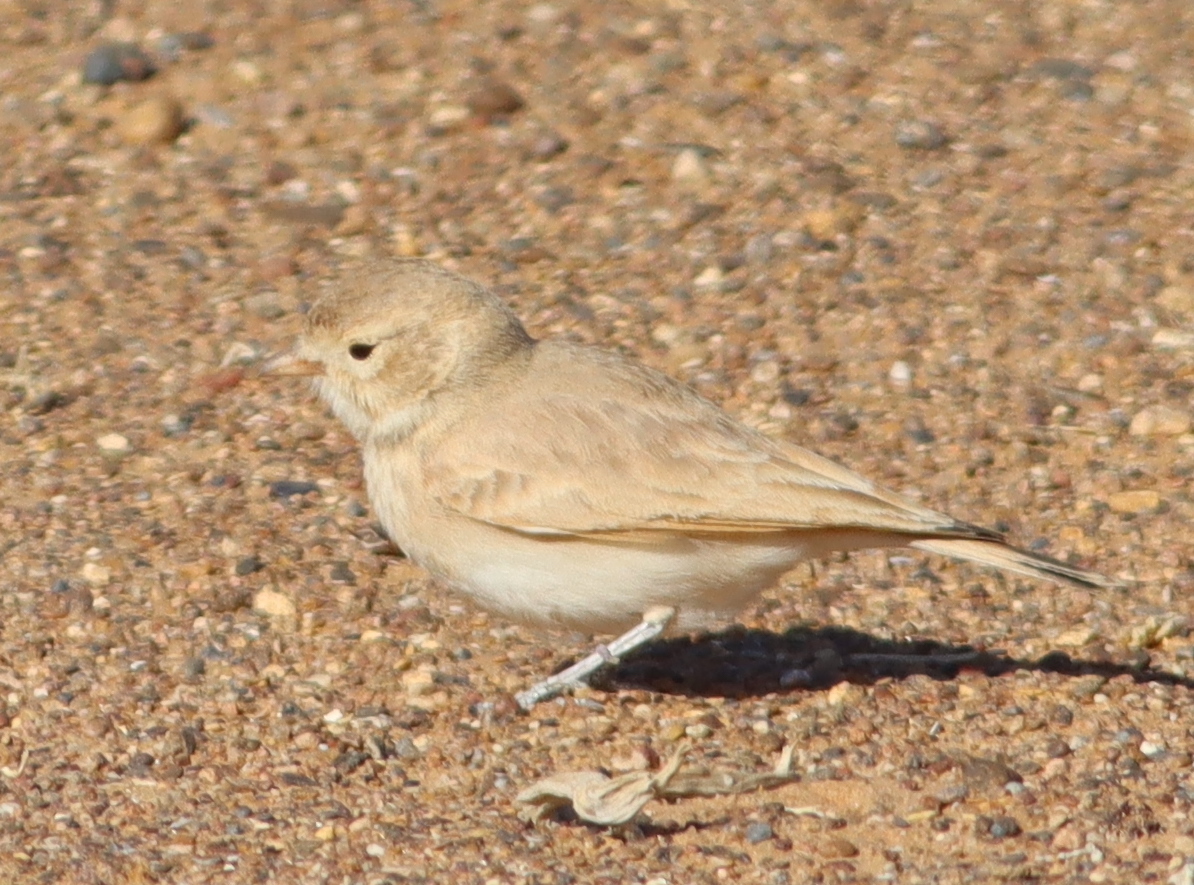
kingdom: Animalia
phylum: Chordata
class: Aves
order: Passeriformes
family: Alaudidae
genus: Ammomanes
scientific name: Ammomanes cinctura
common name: Bar-tailed lark
